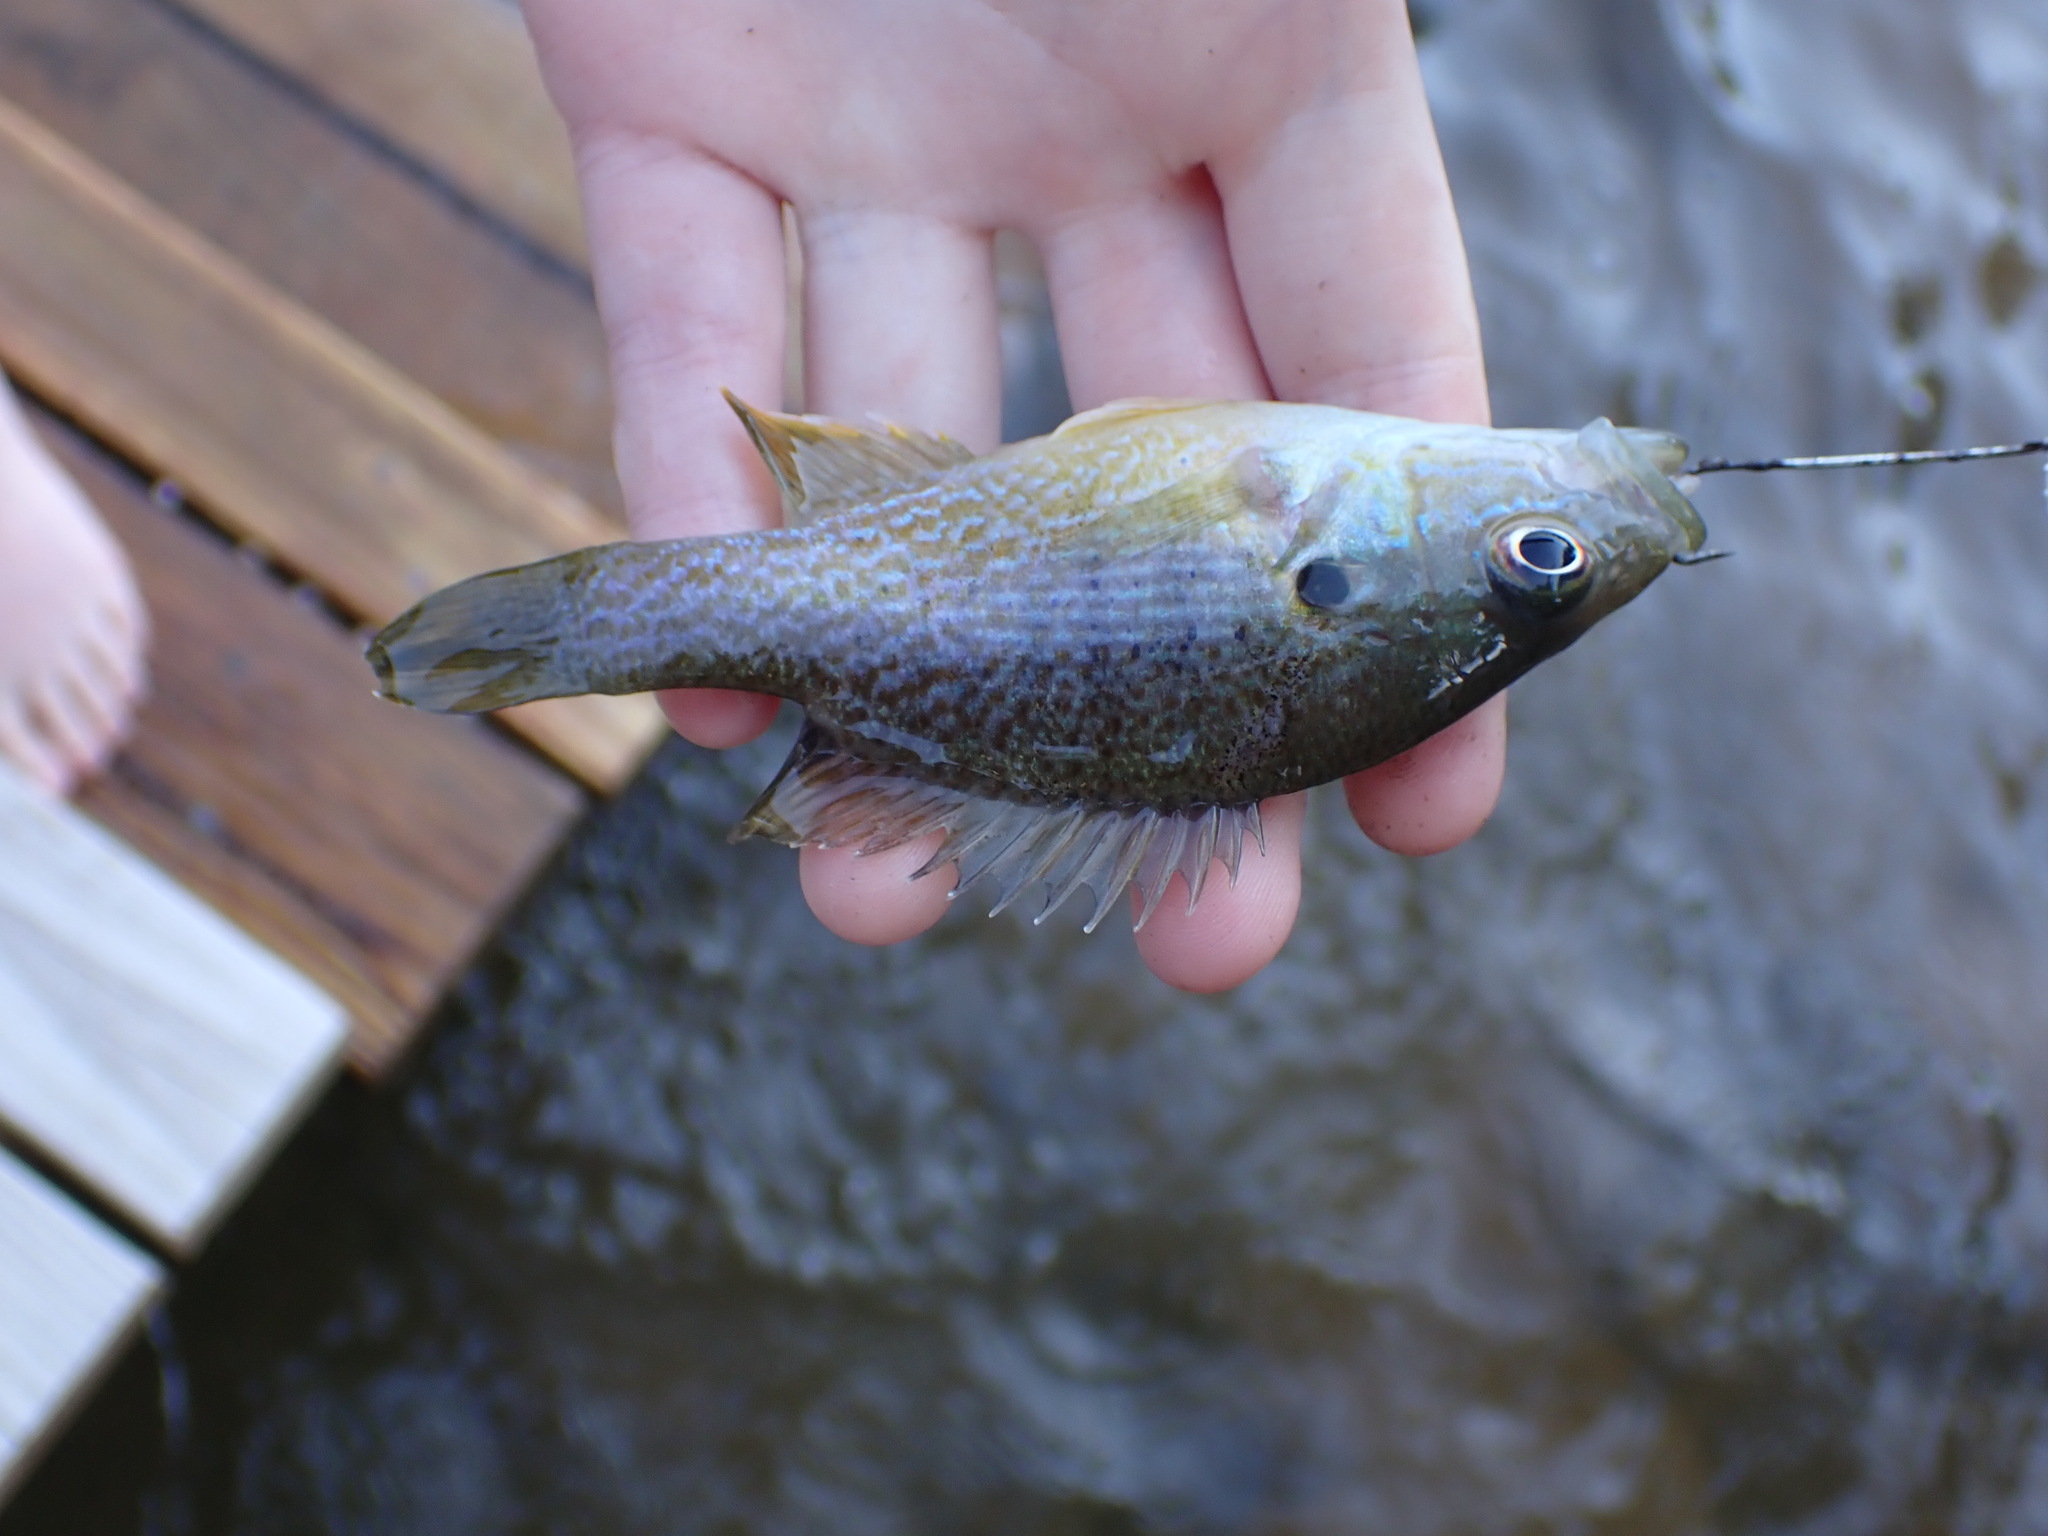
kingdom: Animalia
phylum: Chordata
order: Perciformes
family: Centrarchidae
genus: Lepomis
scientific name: Lepomis cyanellus
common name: Green sunfish
